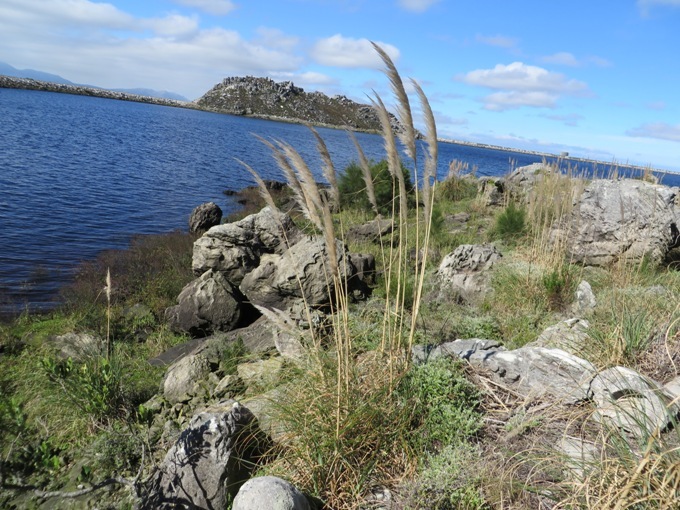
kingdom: Plantae
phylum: Tracheophyta
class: Liliopsida
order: Poales
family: Poaceae
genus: Cortaderia
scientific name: Cortaderia selloana
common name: Uruguayan pampas grass
